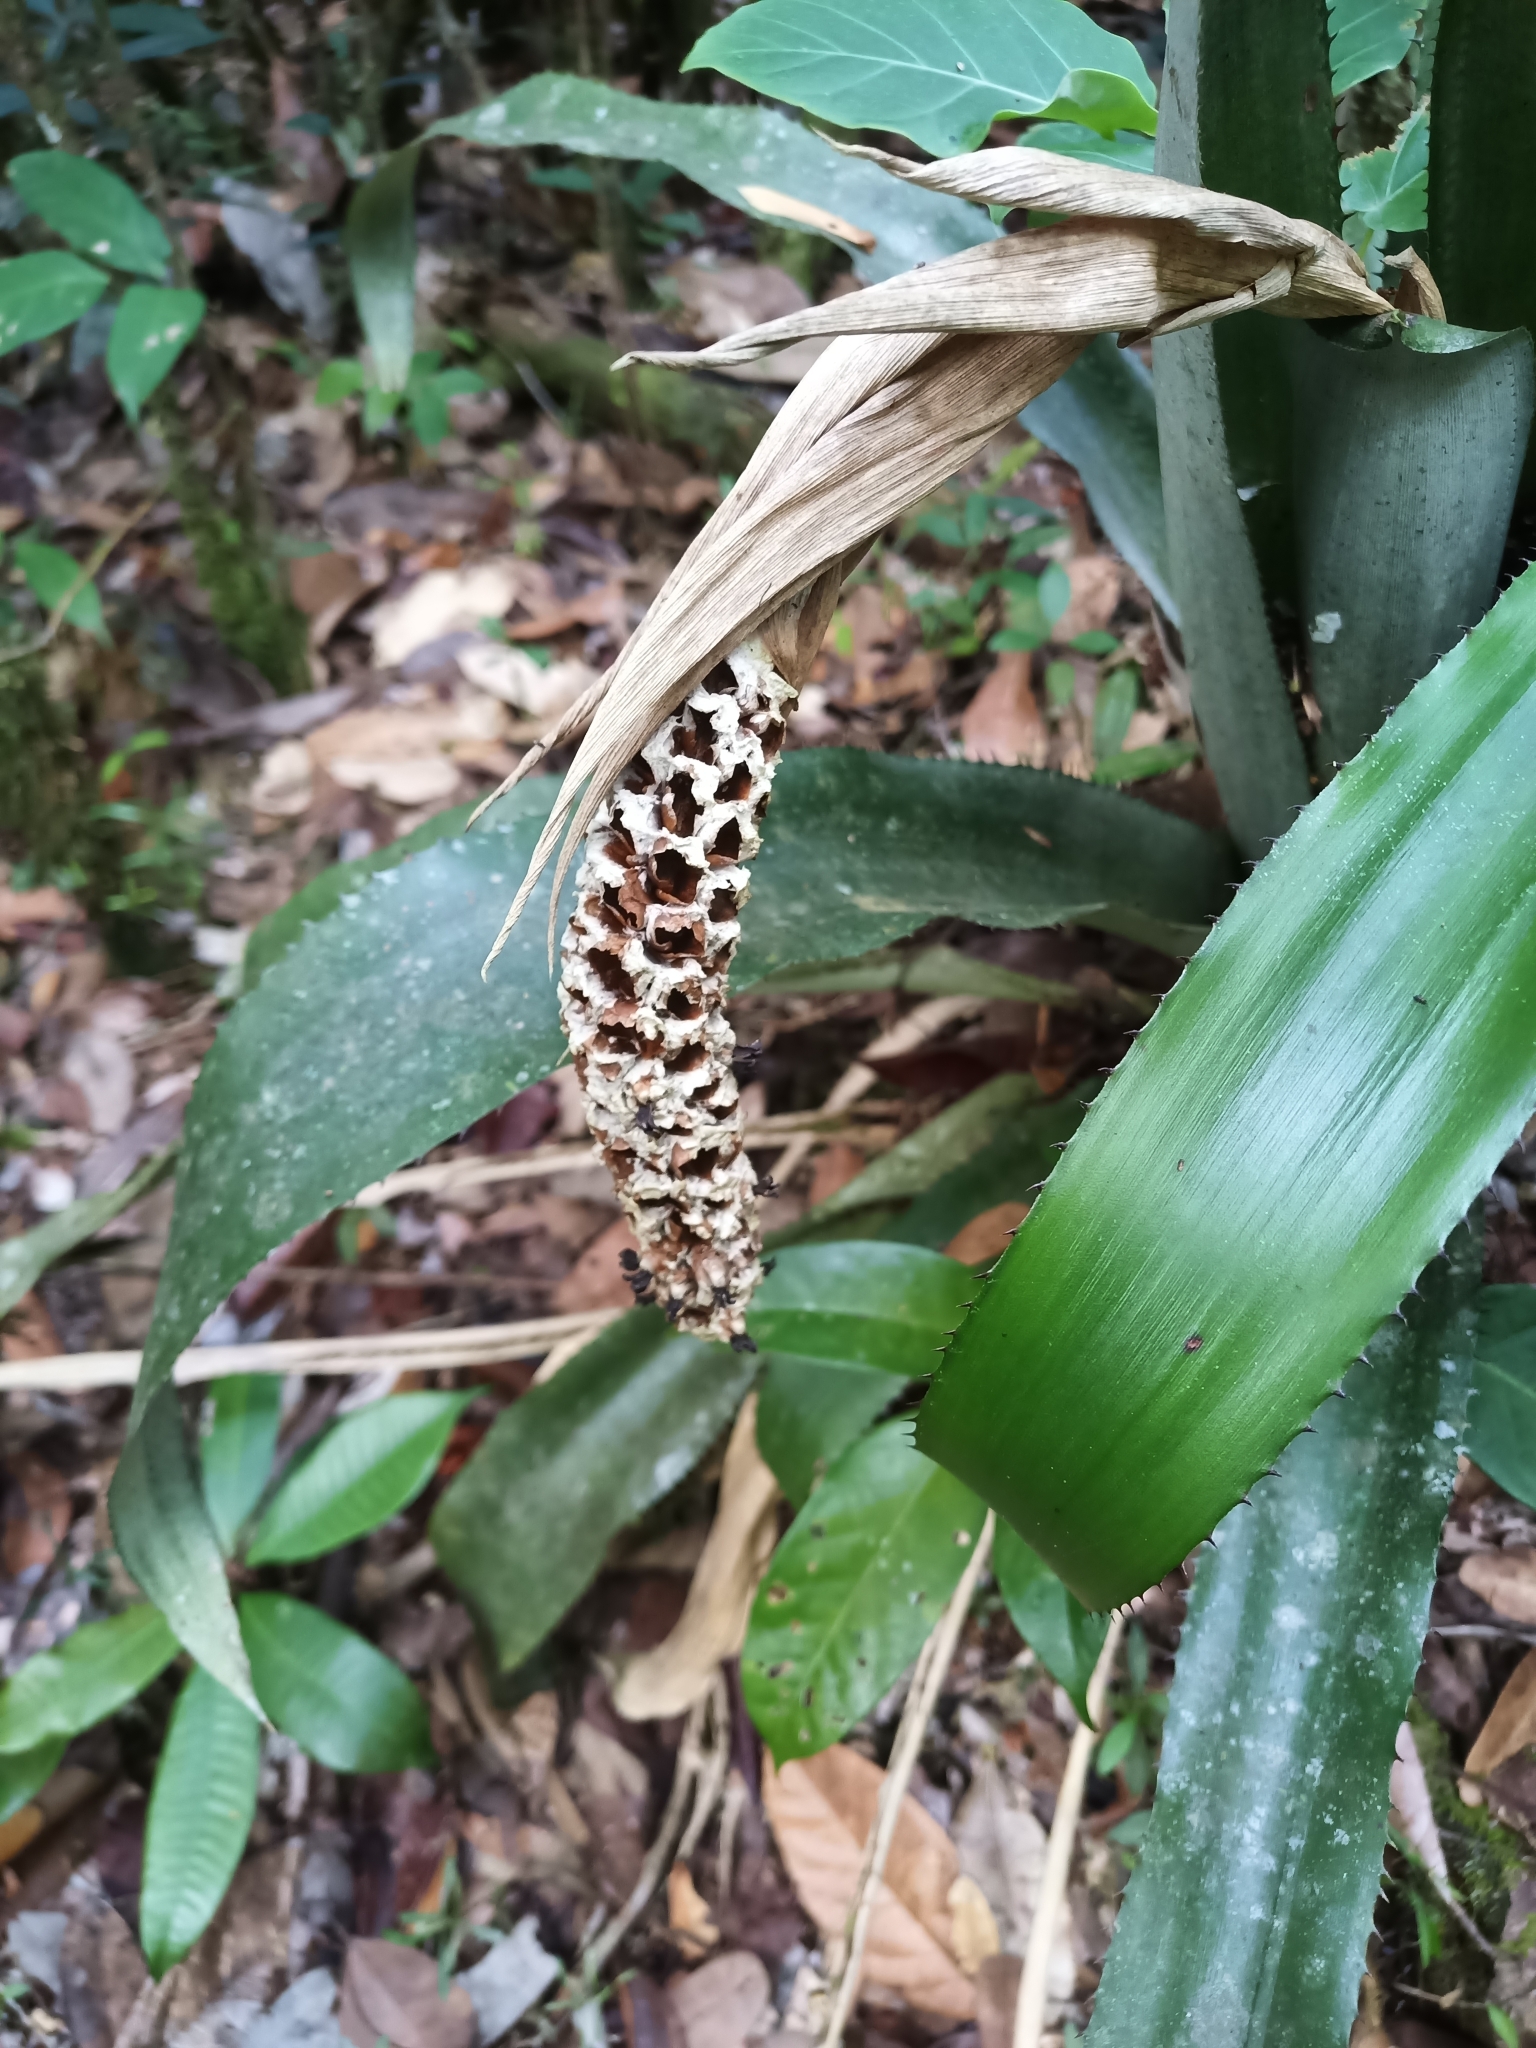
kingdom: Plantae
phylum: Tracheophyta
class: Liliopsida
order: Poales
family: Bromeliaceae
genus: Aechmea
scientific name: Aechmea bromeliifolia
